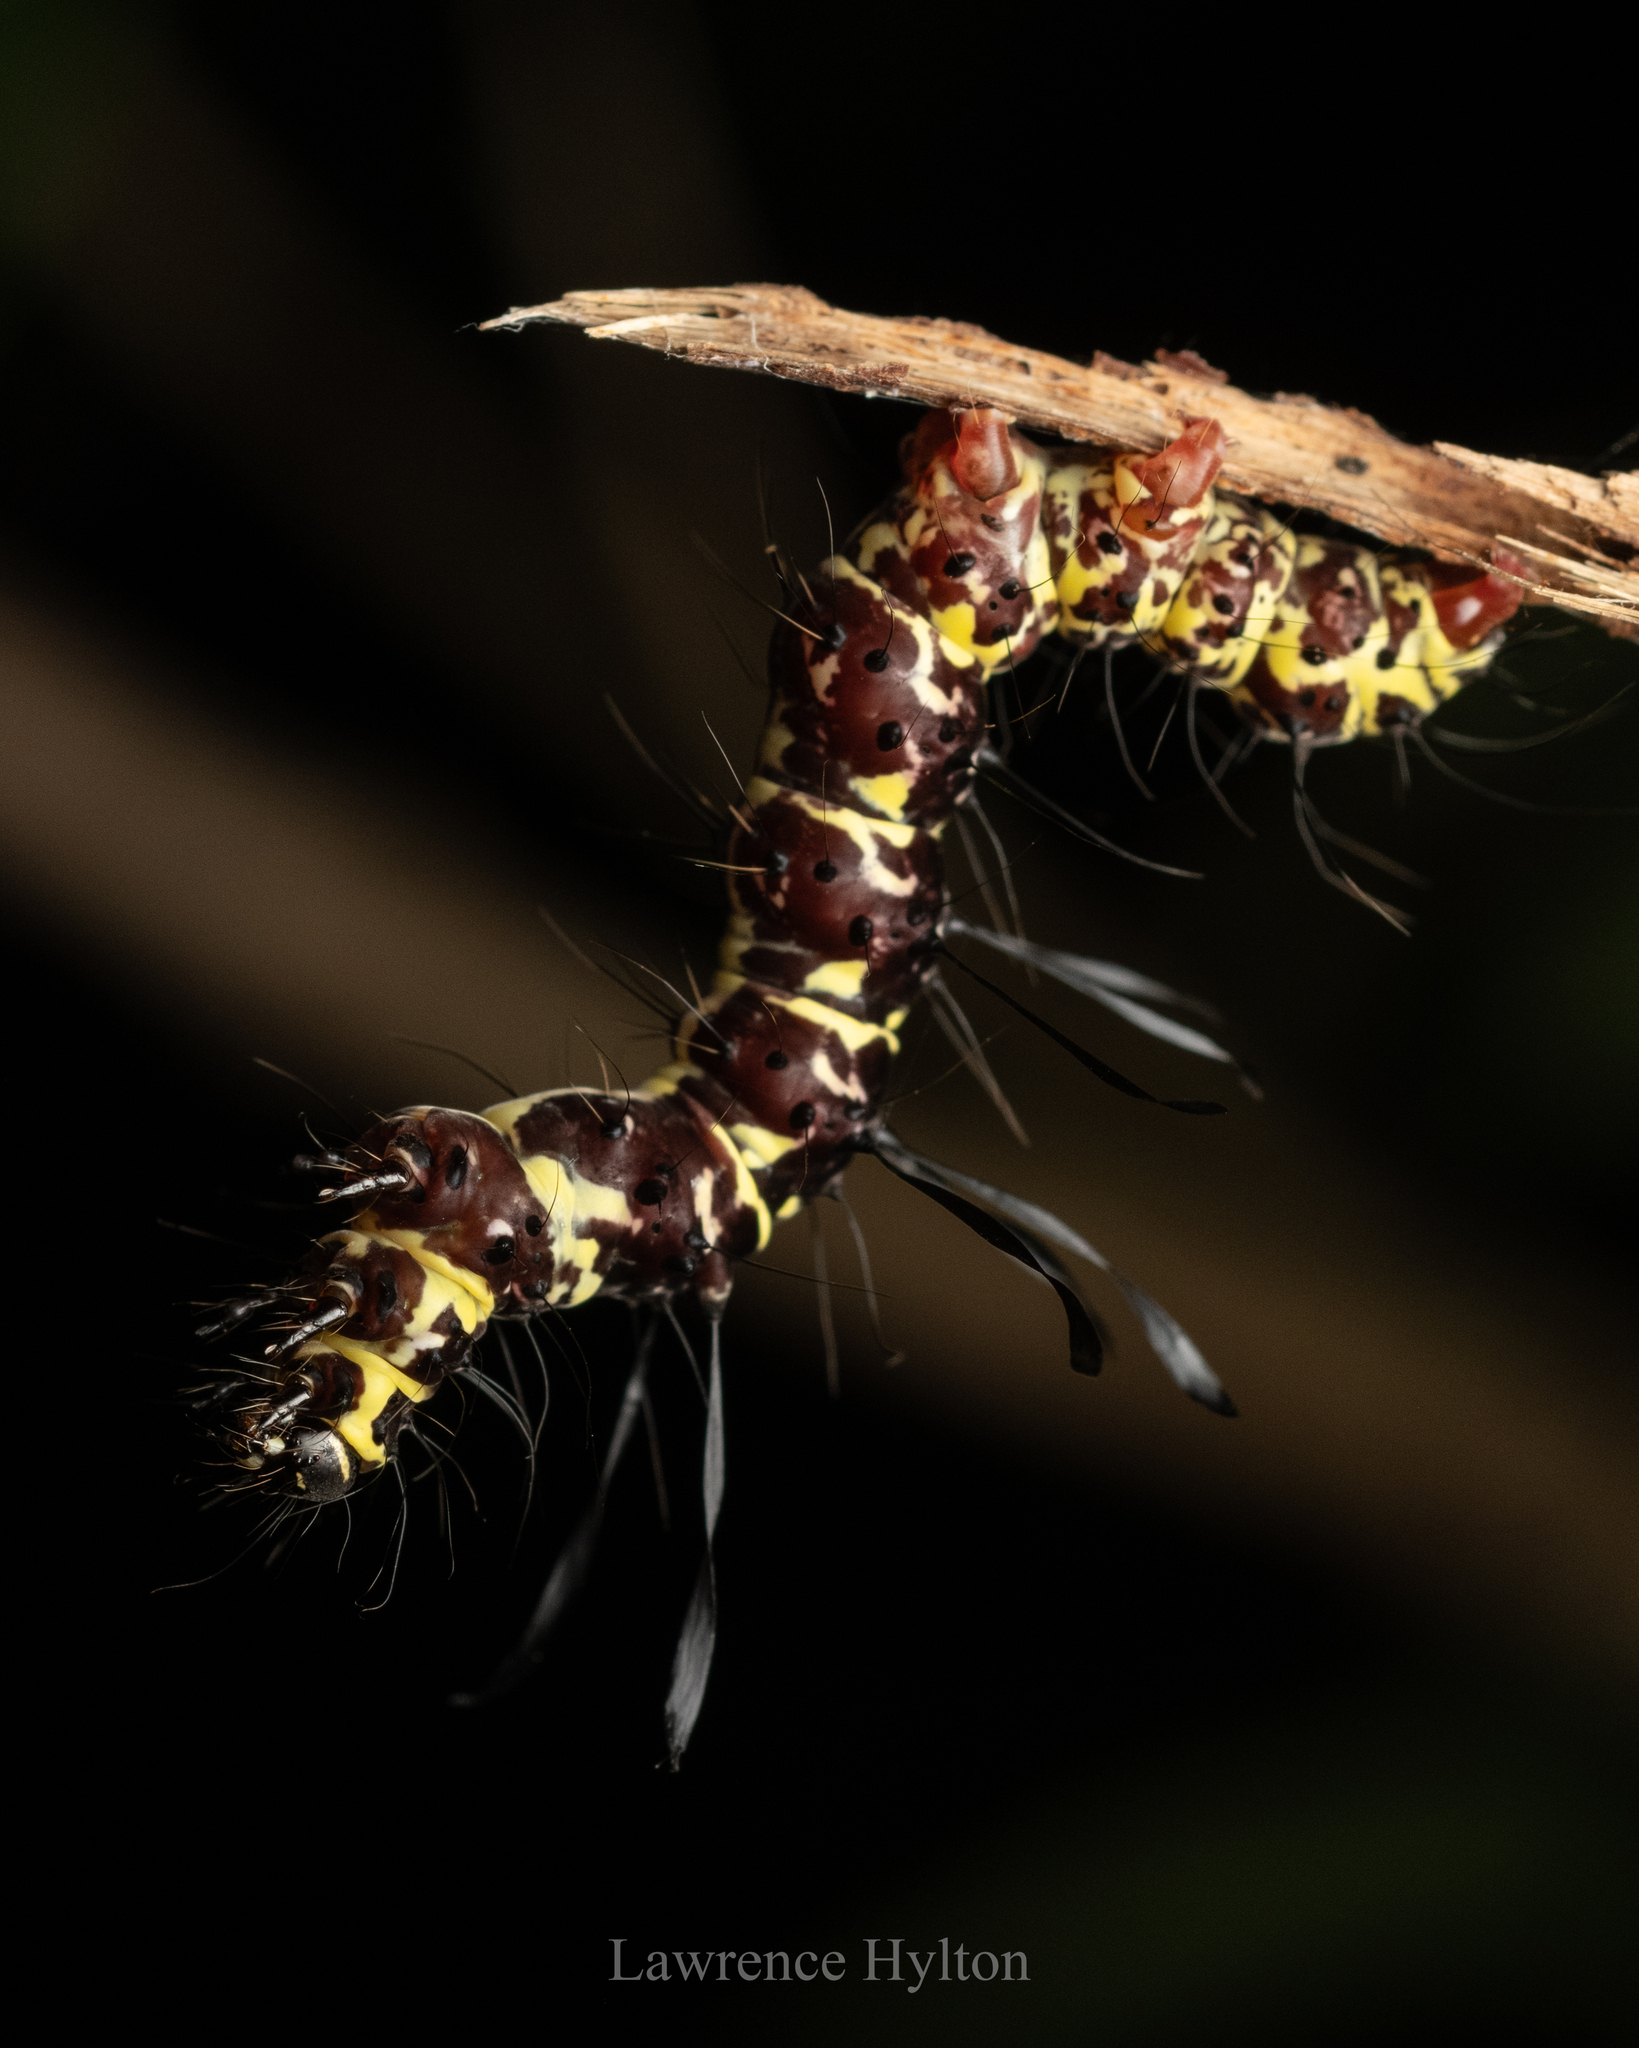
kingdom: Animalia
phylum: Arthropoda
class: Insecta
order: Lepidoptera
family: Erebidae
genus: Tinolius
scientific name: Tinolius hypsana
